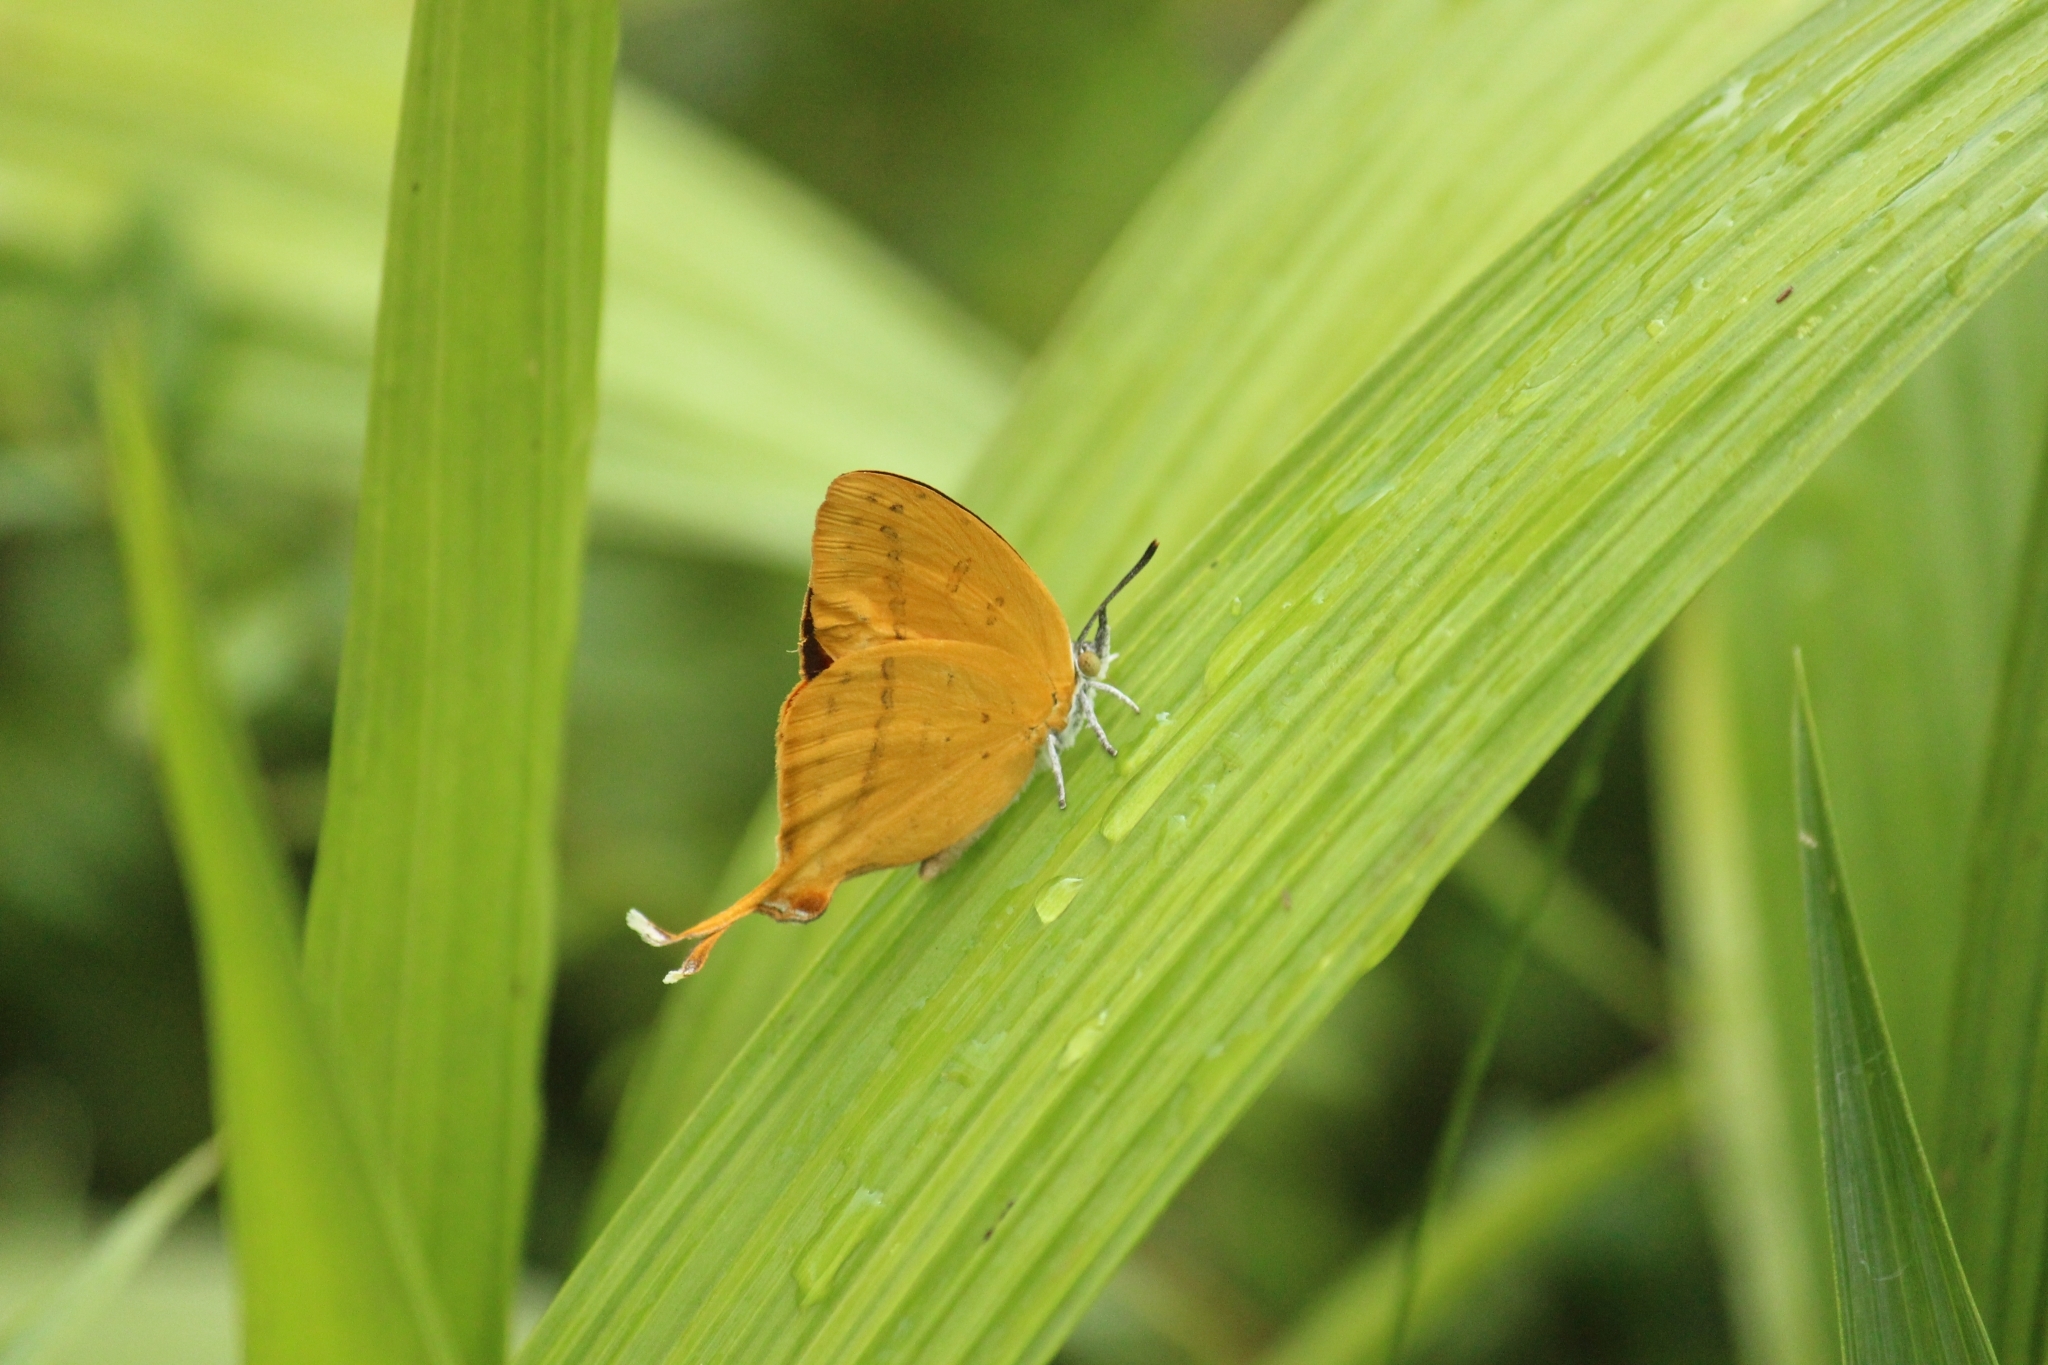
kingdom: Animalia
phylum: Arthropoda
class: Insecta
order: Lepidoptera
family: Lycaenidae
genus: Loxura
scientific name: Loxura atymnus
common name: Common yamfly
